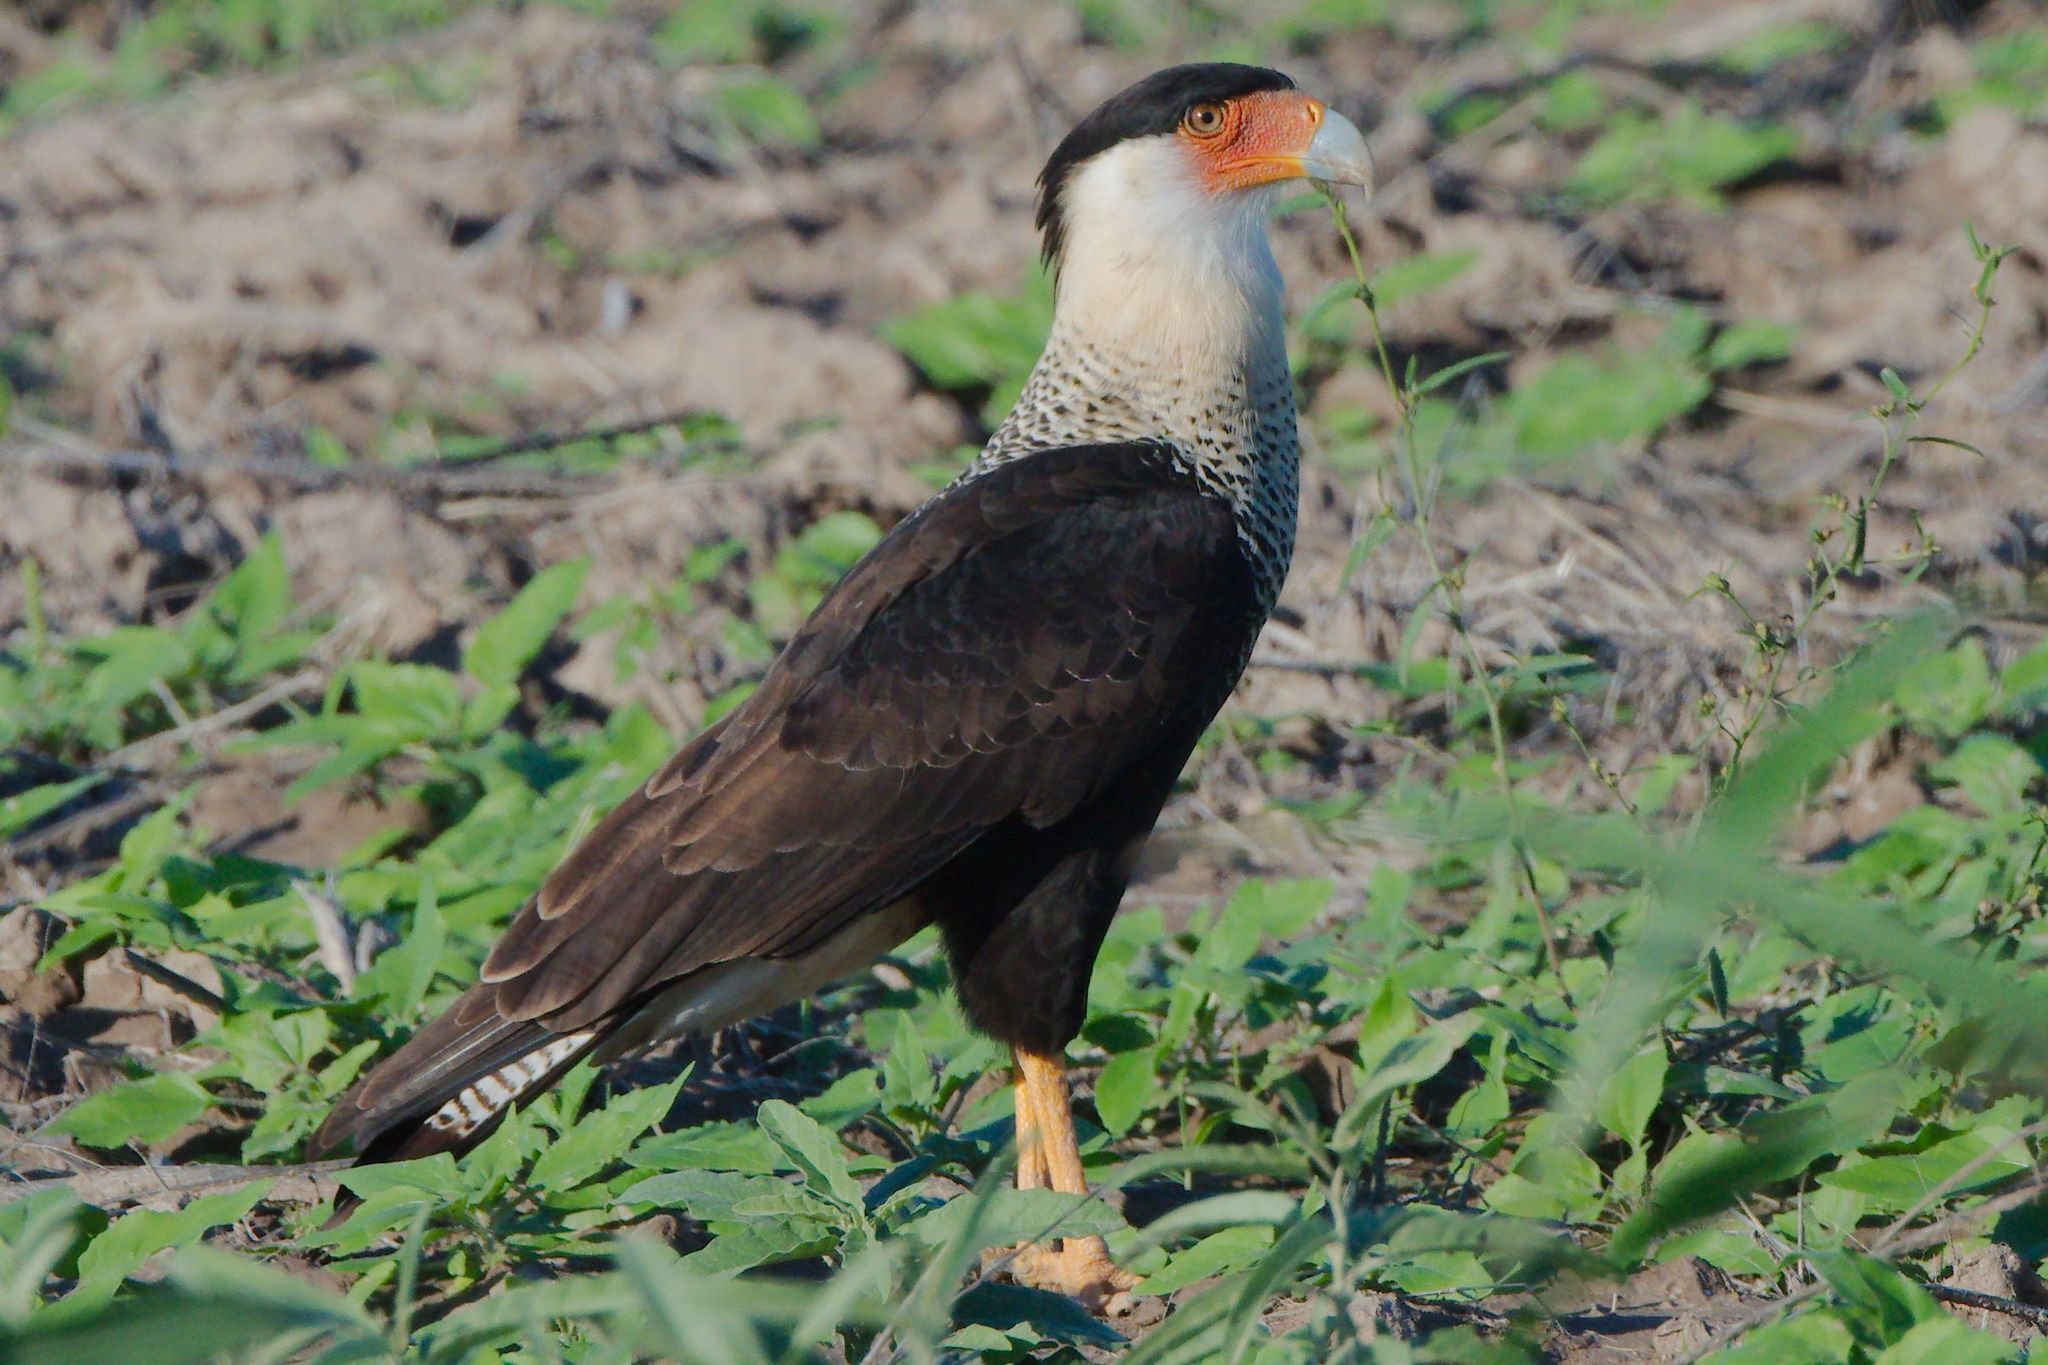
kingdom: Animalia
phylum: Chordata
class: Aves
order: Falconiformes
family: Falconidae
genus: Caracara
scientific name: Caracara plancus
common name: Southern caracara
